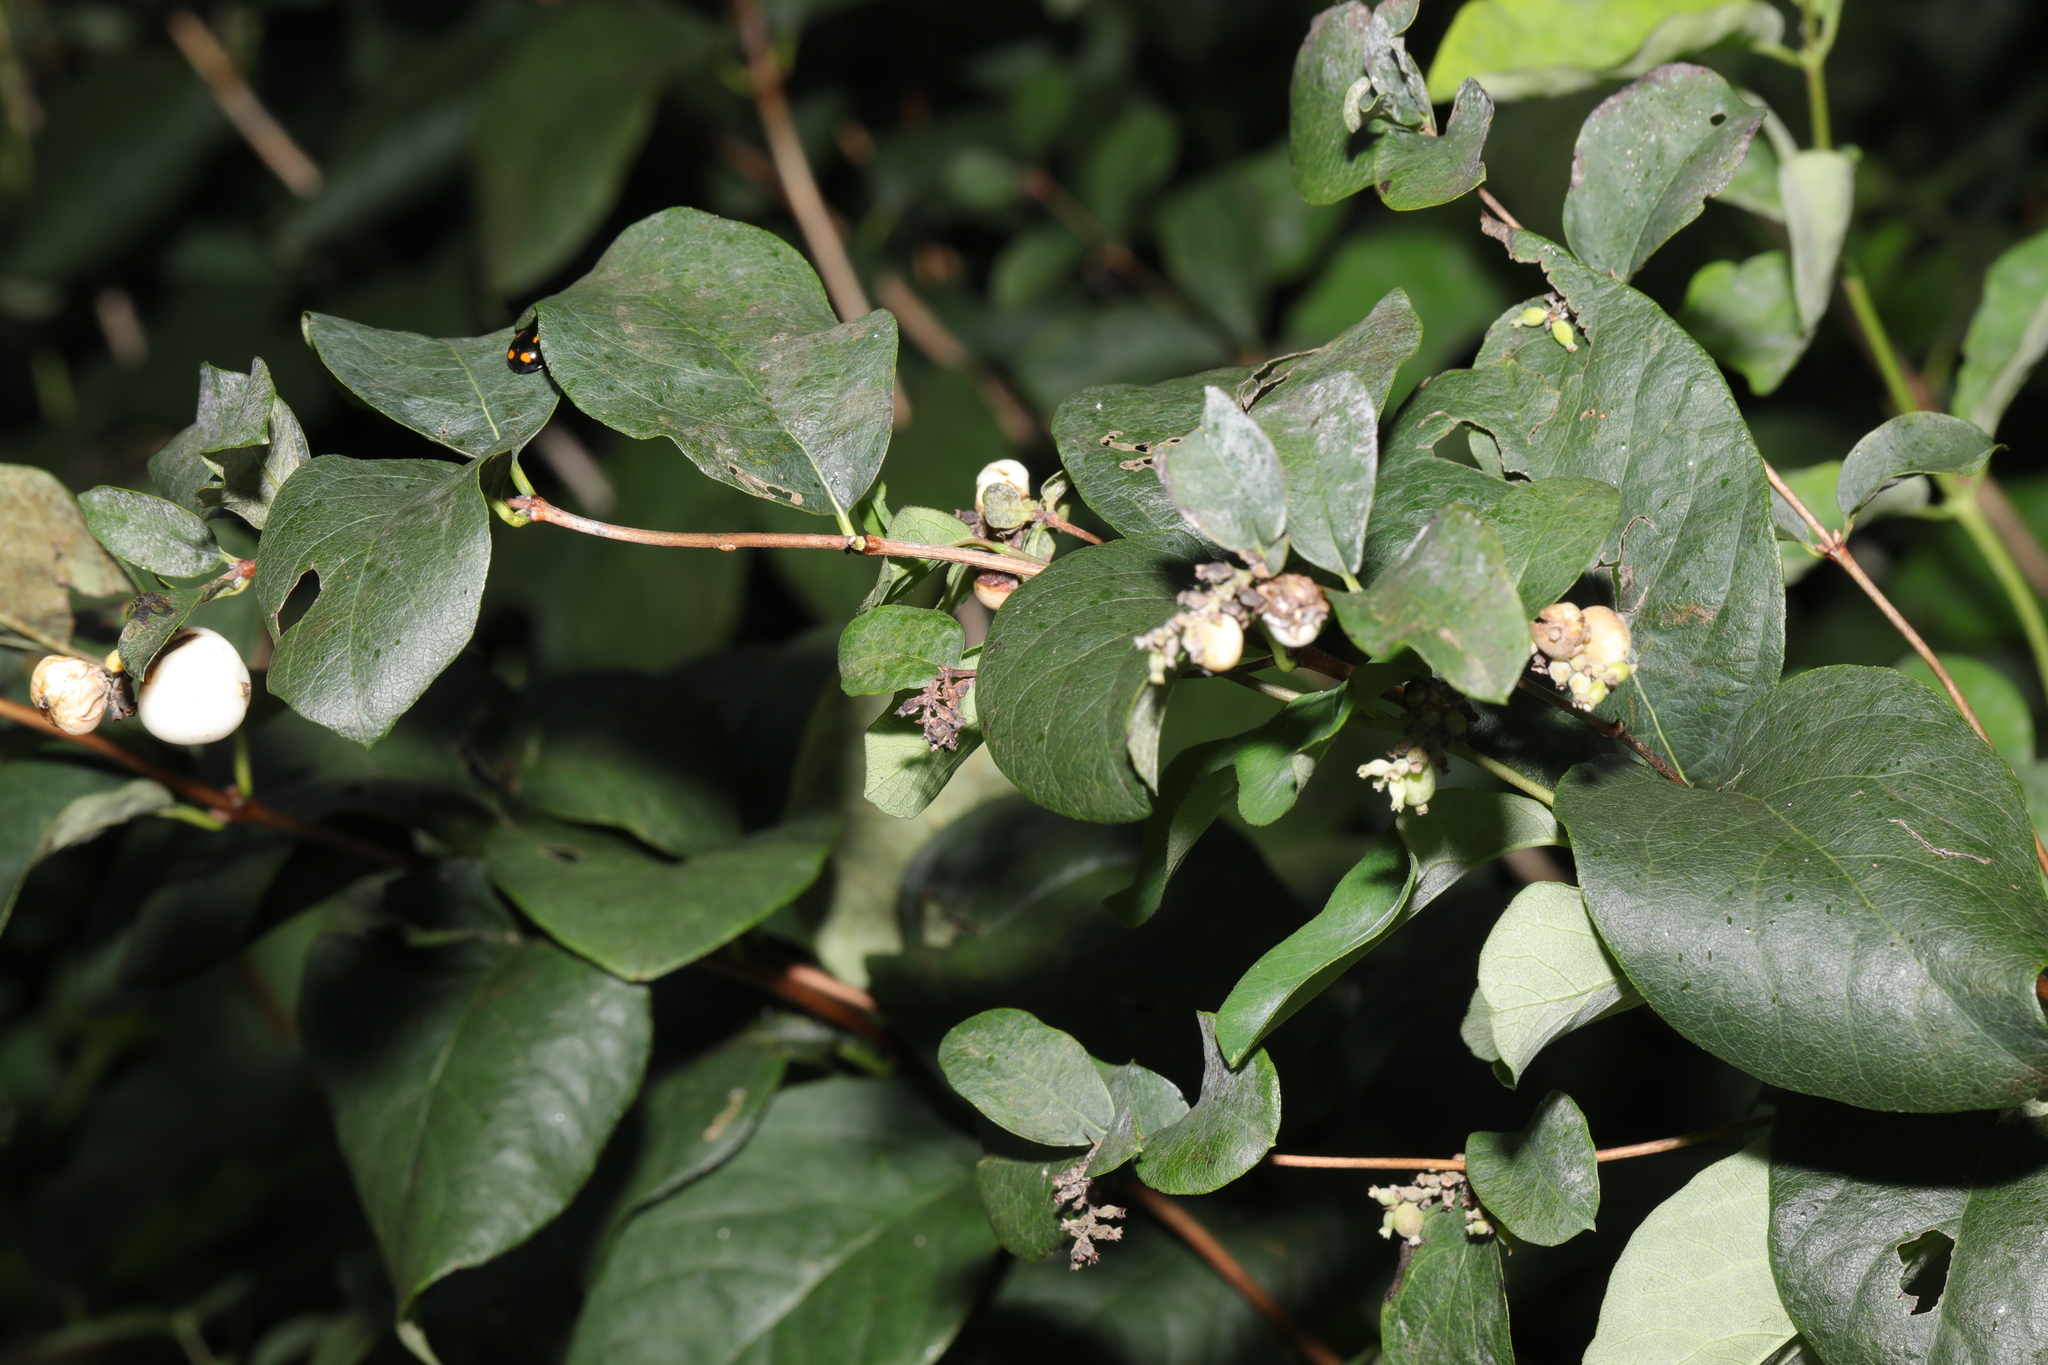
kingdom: Plantae
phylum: Tracheophyta
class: Magnoliopsida
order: Dipsacales
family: Caprifoliaceae
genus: Symphoricarpos
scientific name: Symphoricarpos albus
